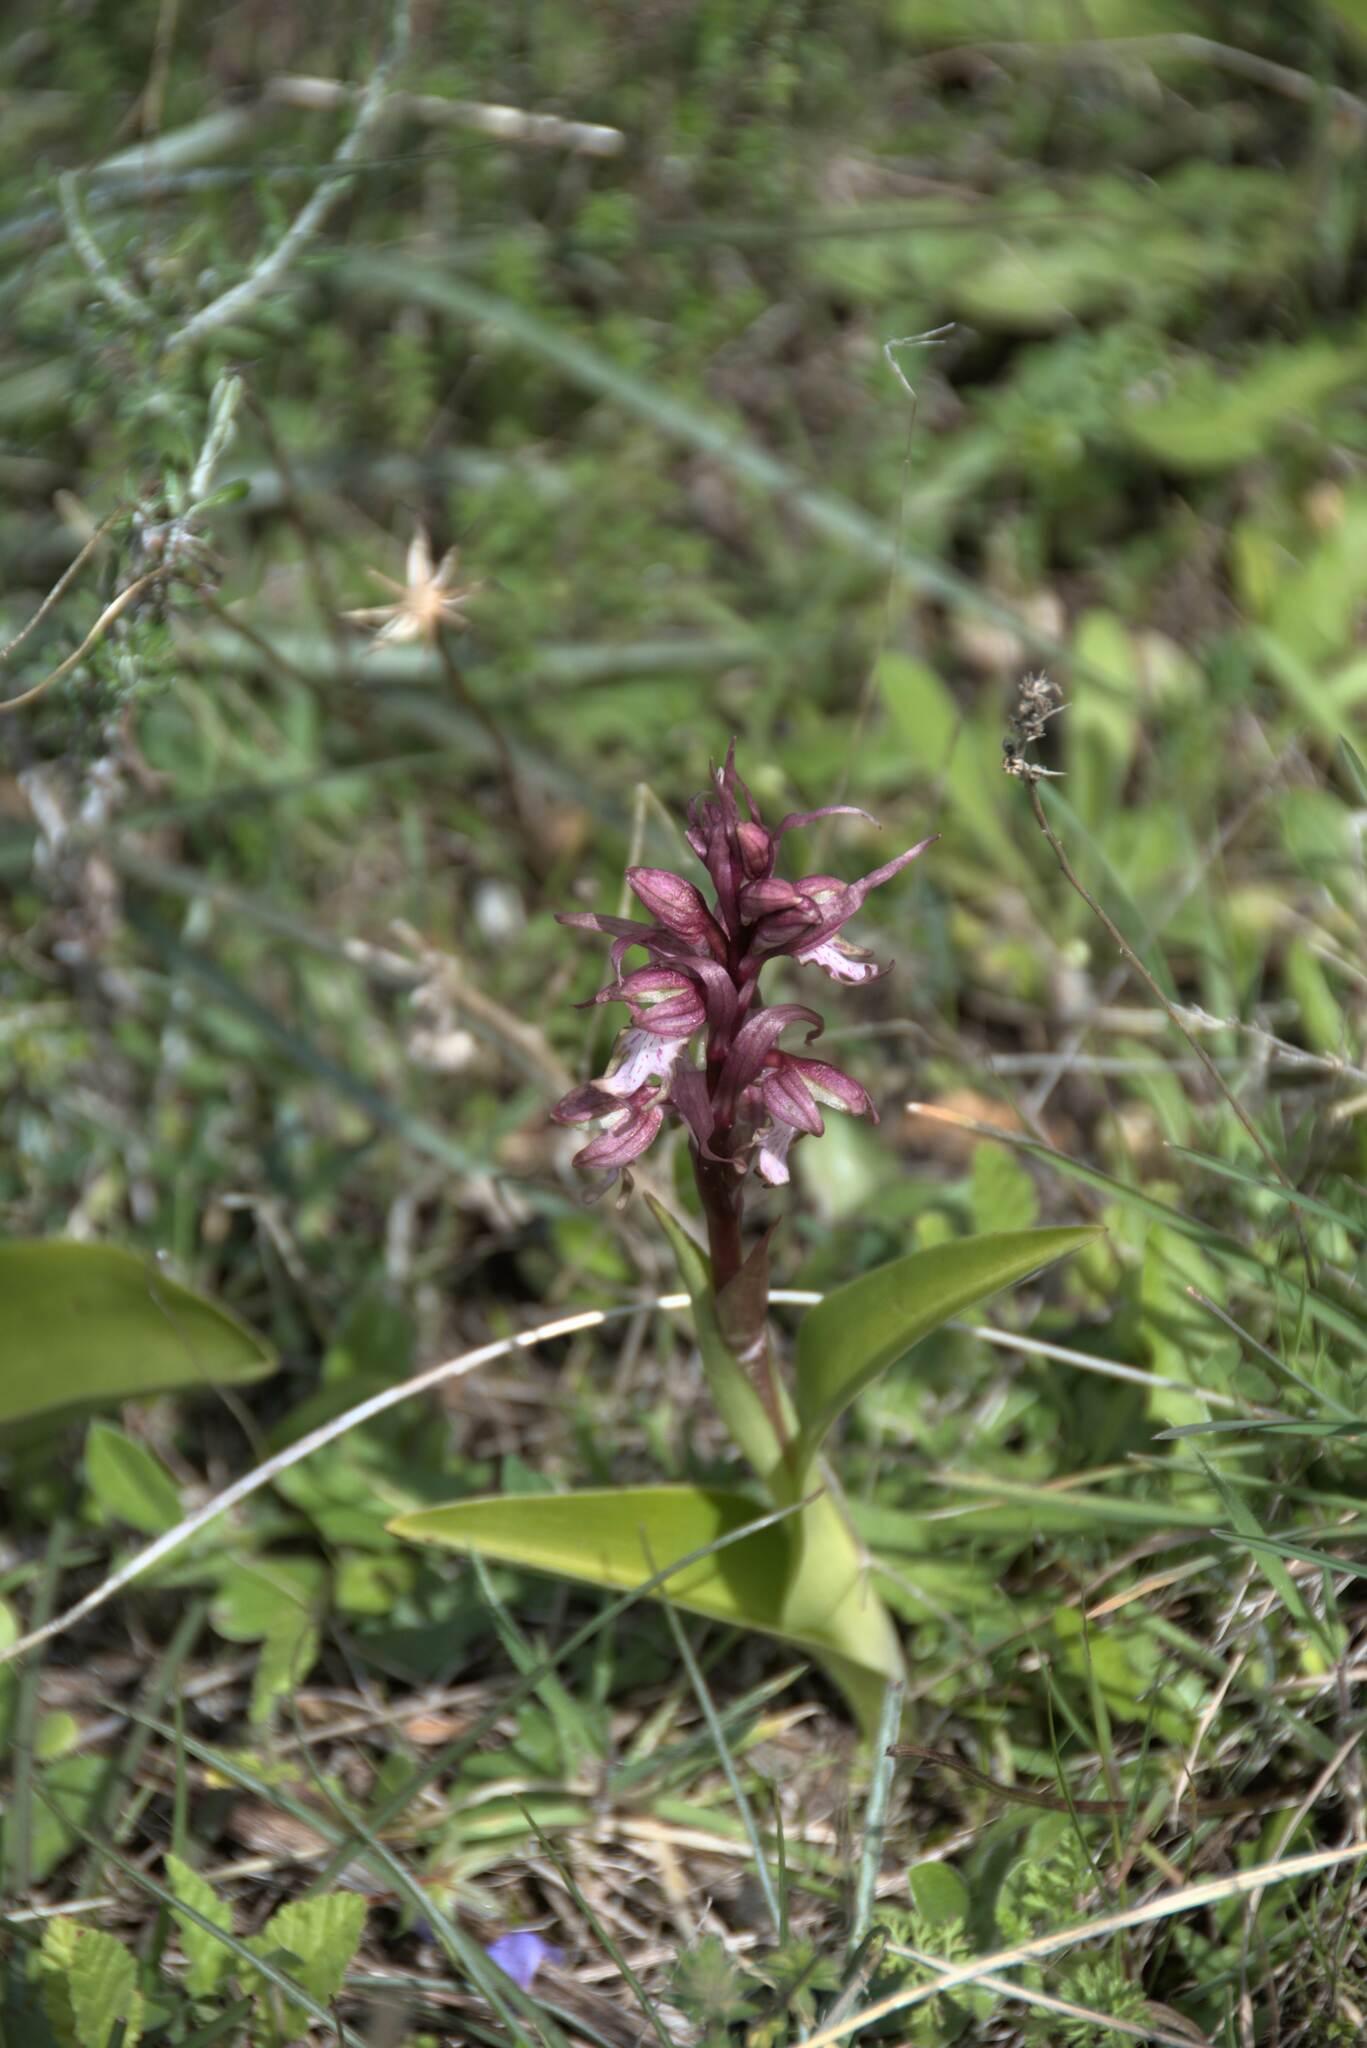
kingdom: Plantae
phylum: Tracheophyta
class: Liliopsida
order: Asparagales
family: Orchidaceae
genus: Himantoglossum
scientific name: Himantoglossum robertianum
